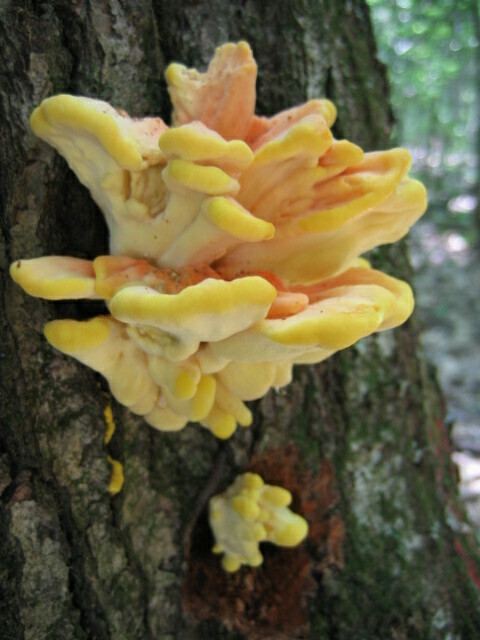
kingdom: Fungi
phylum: Basidiomycota
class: Agaricomycetes
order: Polyporales
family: Laetiporaceae
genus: Laetiporus
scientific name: Laetiporus sulphureus
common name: Chicken of the woods
